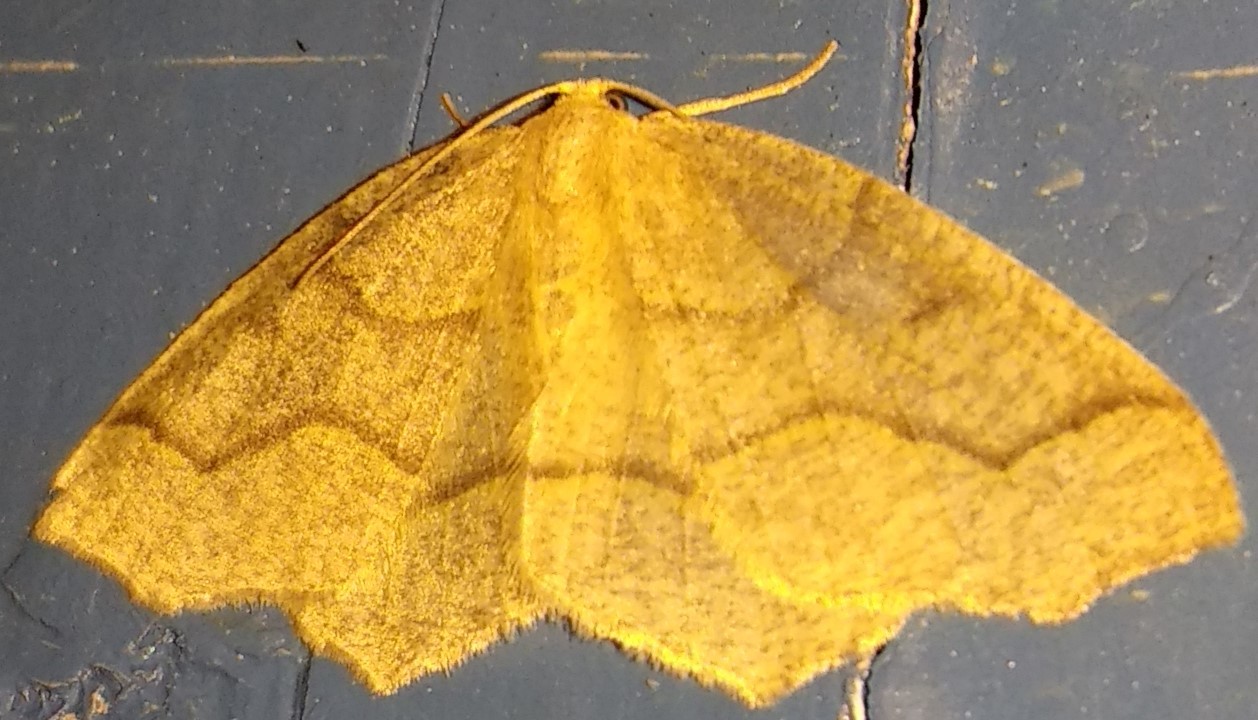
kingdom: Animalia
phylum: Arthropoda
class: Insecta
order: Lepidoptera
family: Geometridae
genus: Lambdina
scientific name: Lambdina fiscellaria
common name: Hemlock looper
